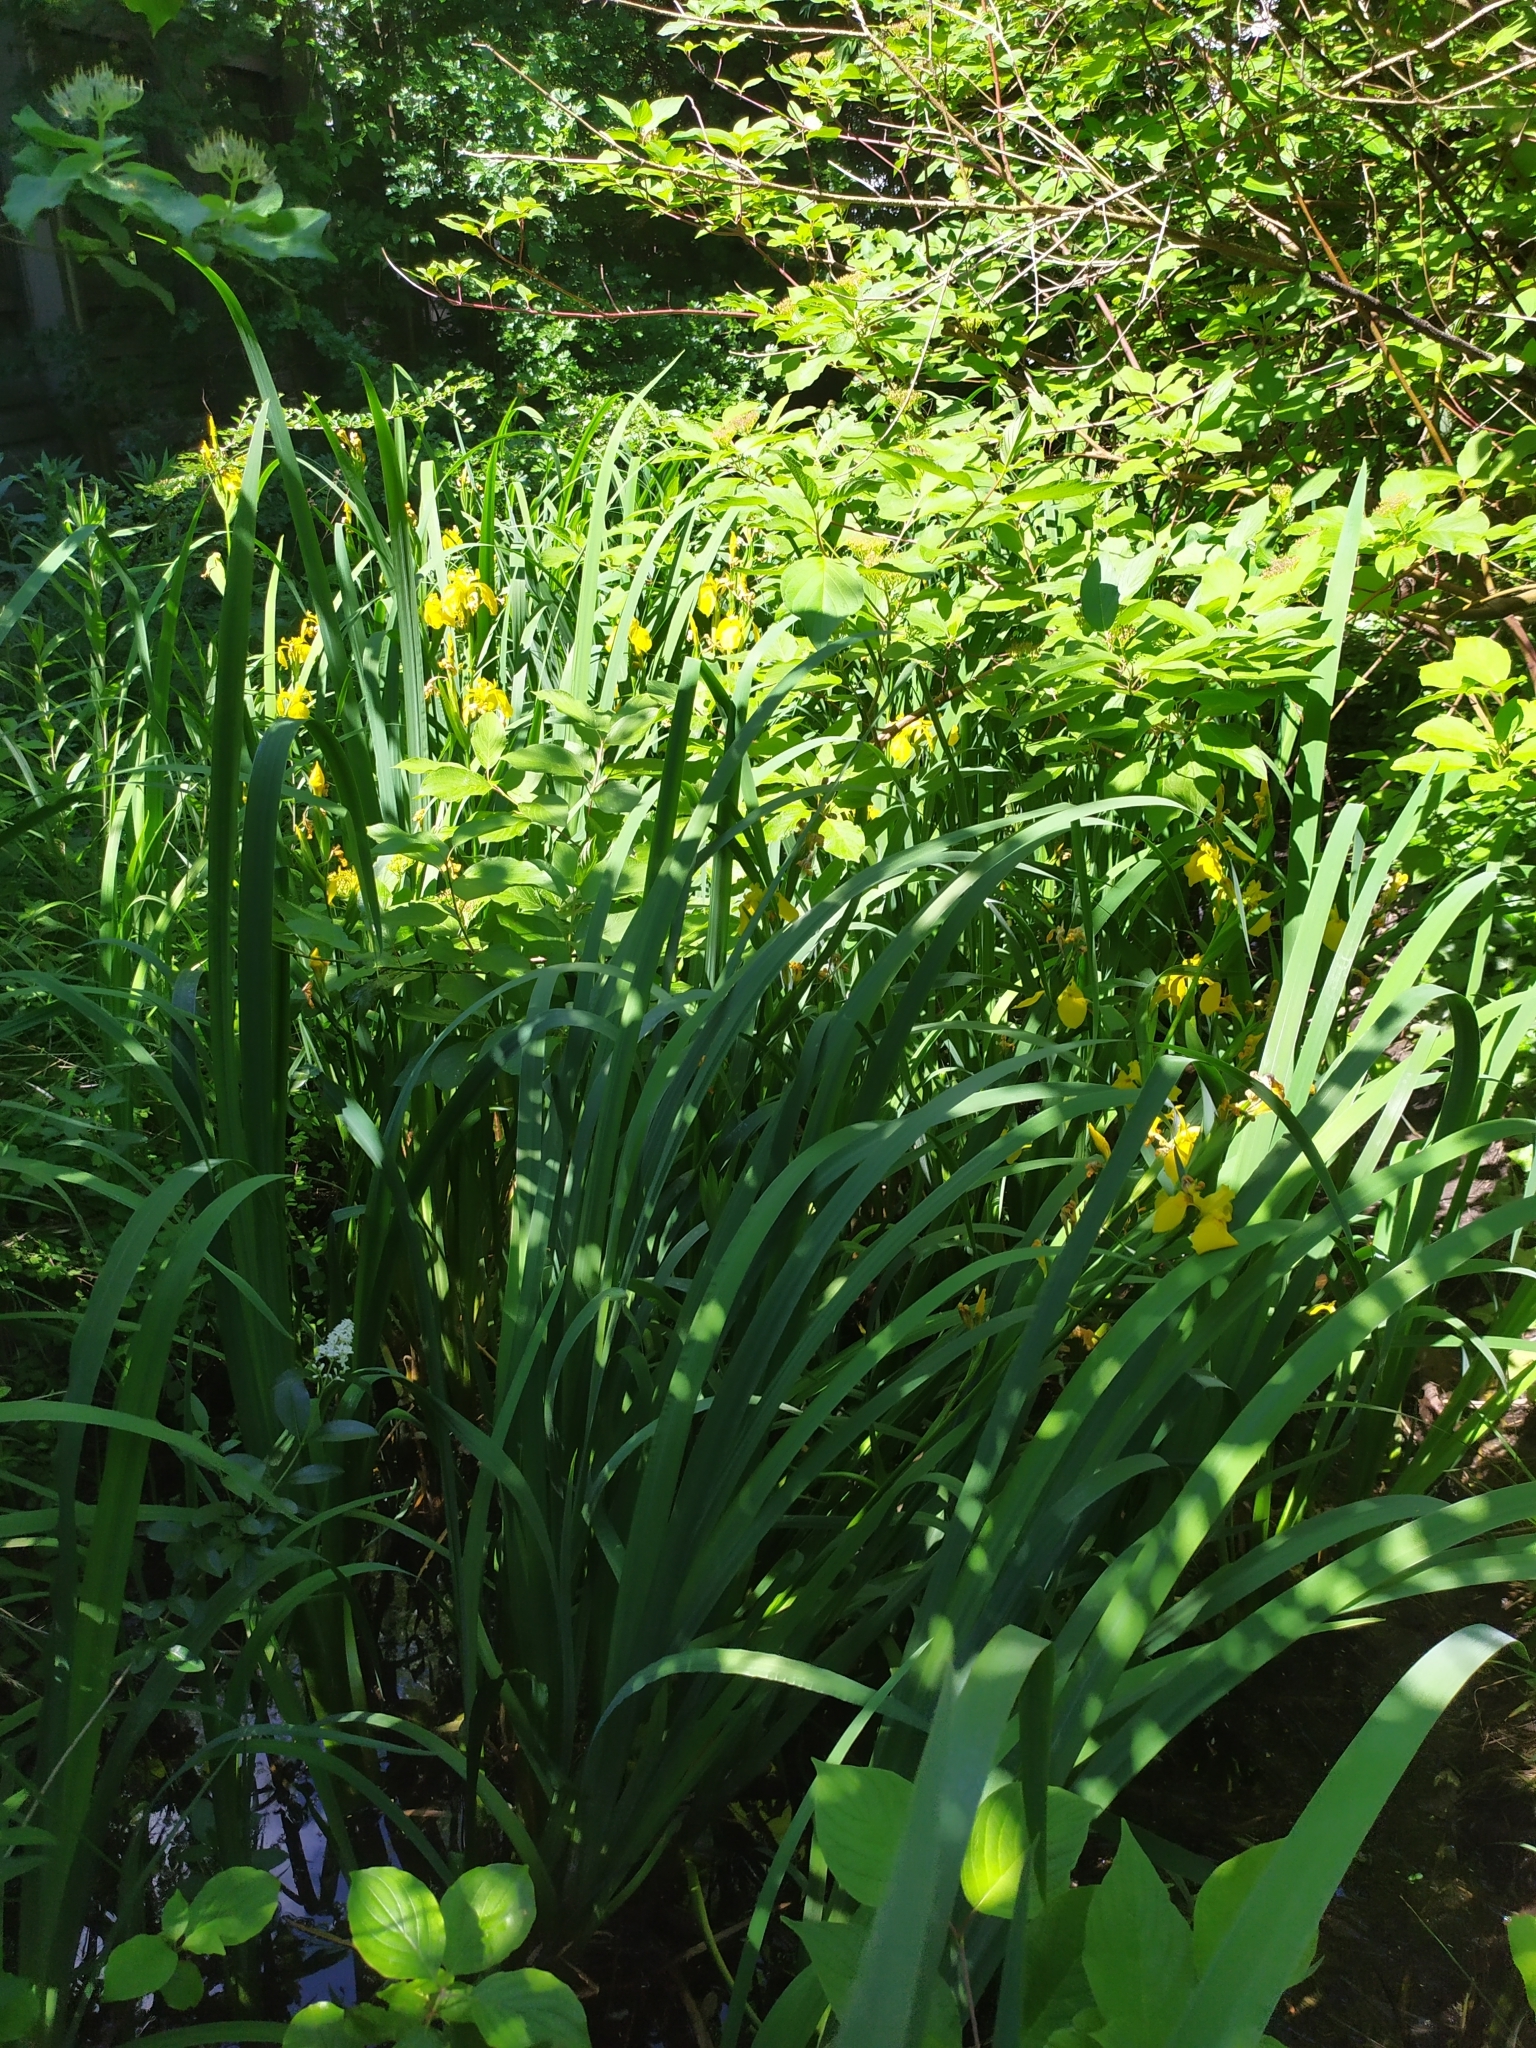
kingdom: Plantae
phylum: Tracheophyta
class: Liliopsida
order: Asparagales
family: Iridaceae
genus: Iris
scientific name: Iris pseudacorus
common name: Yellow flag
